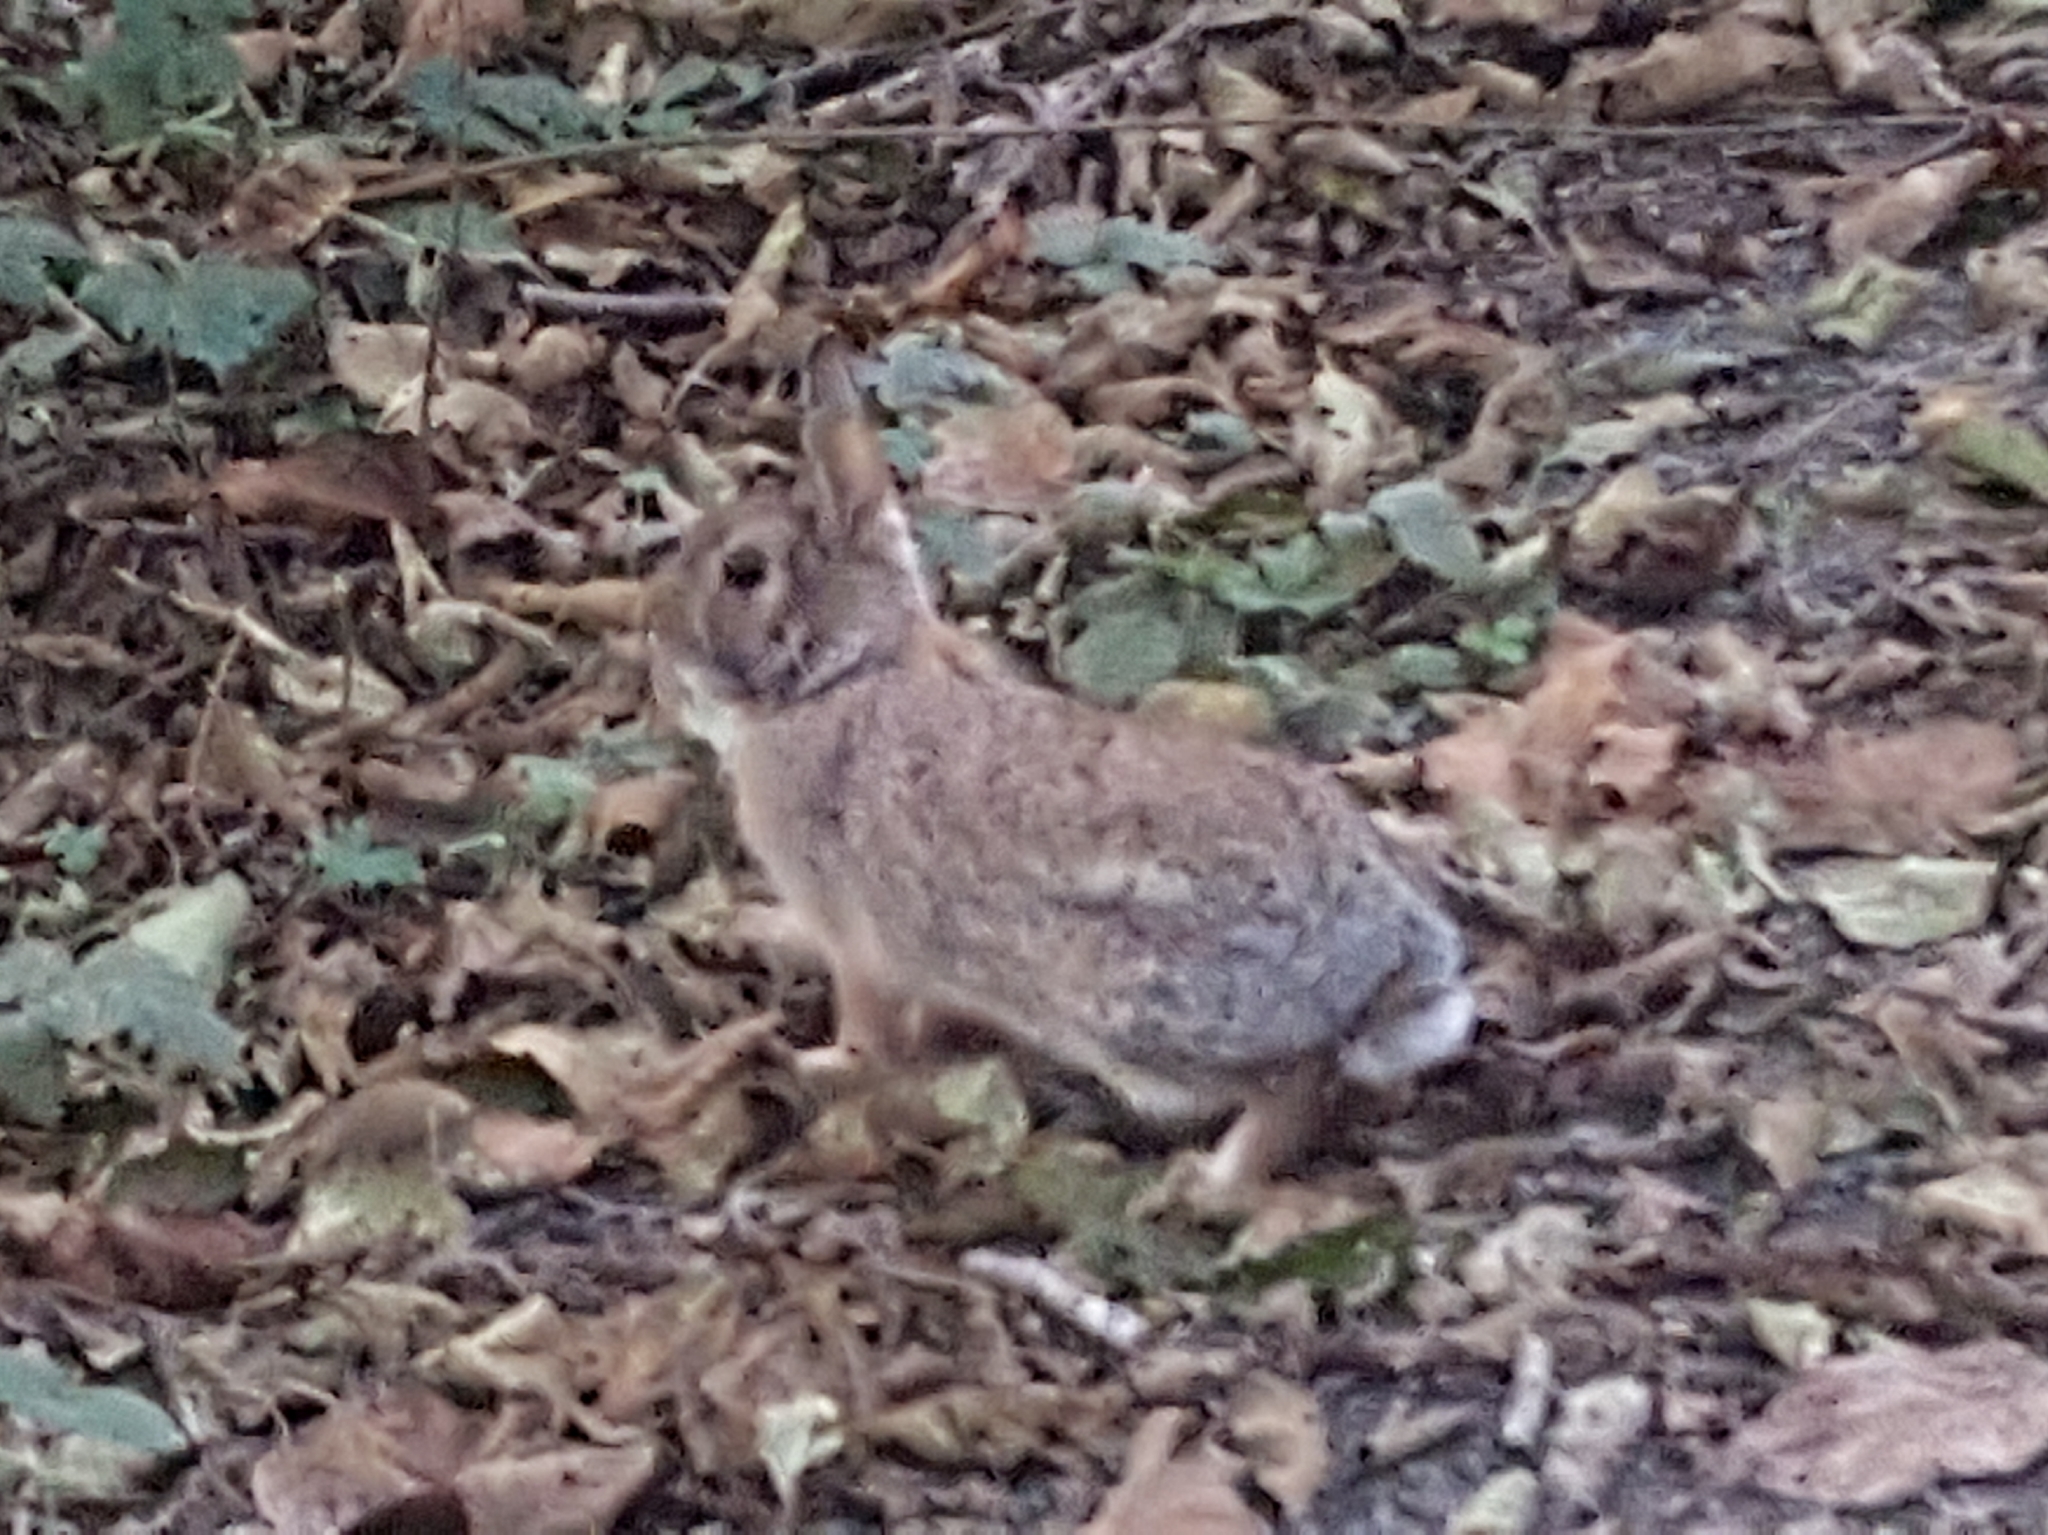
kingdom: Animalia
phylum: Chordata
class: Mammalia
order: Lagomorpha
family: Leporidae
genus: Sylvilagus
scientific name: Sylvilagus floridanus
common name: Eastern cottontail
